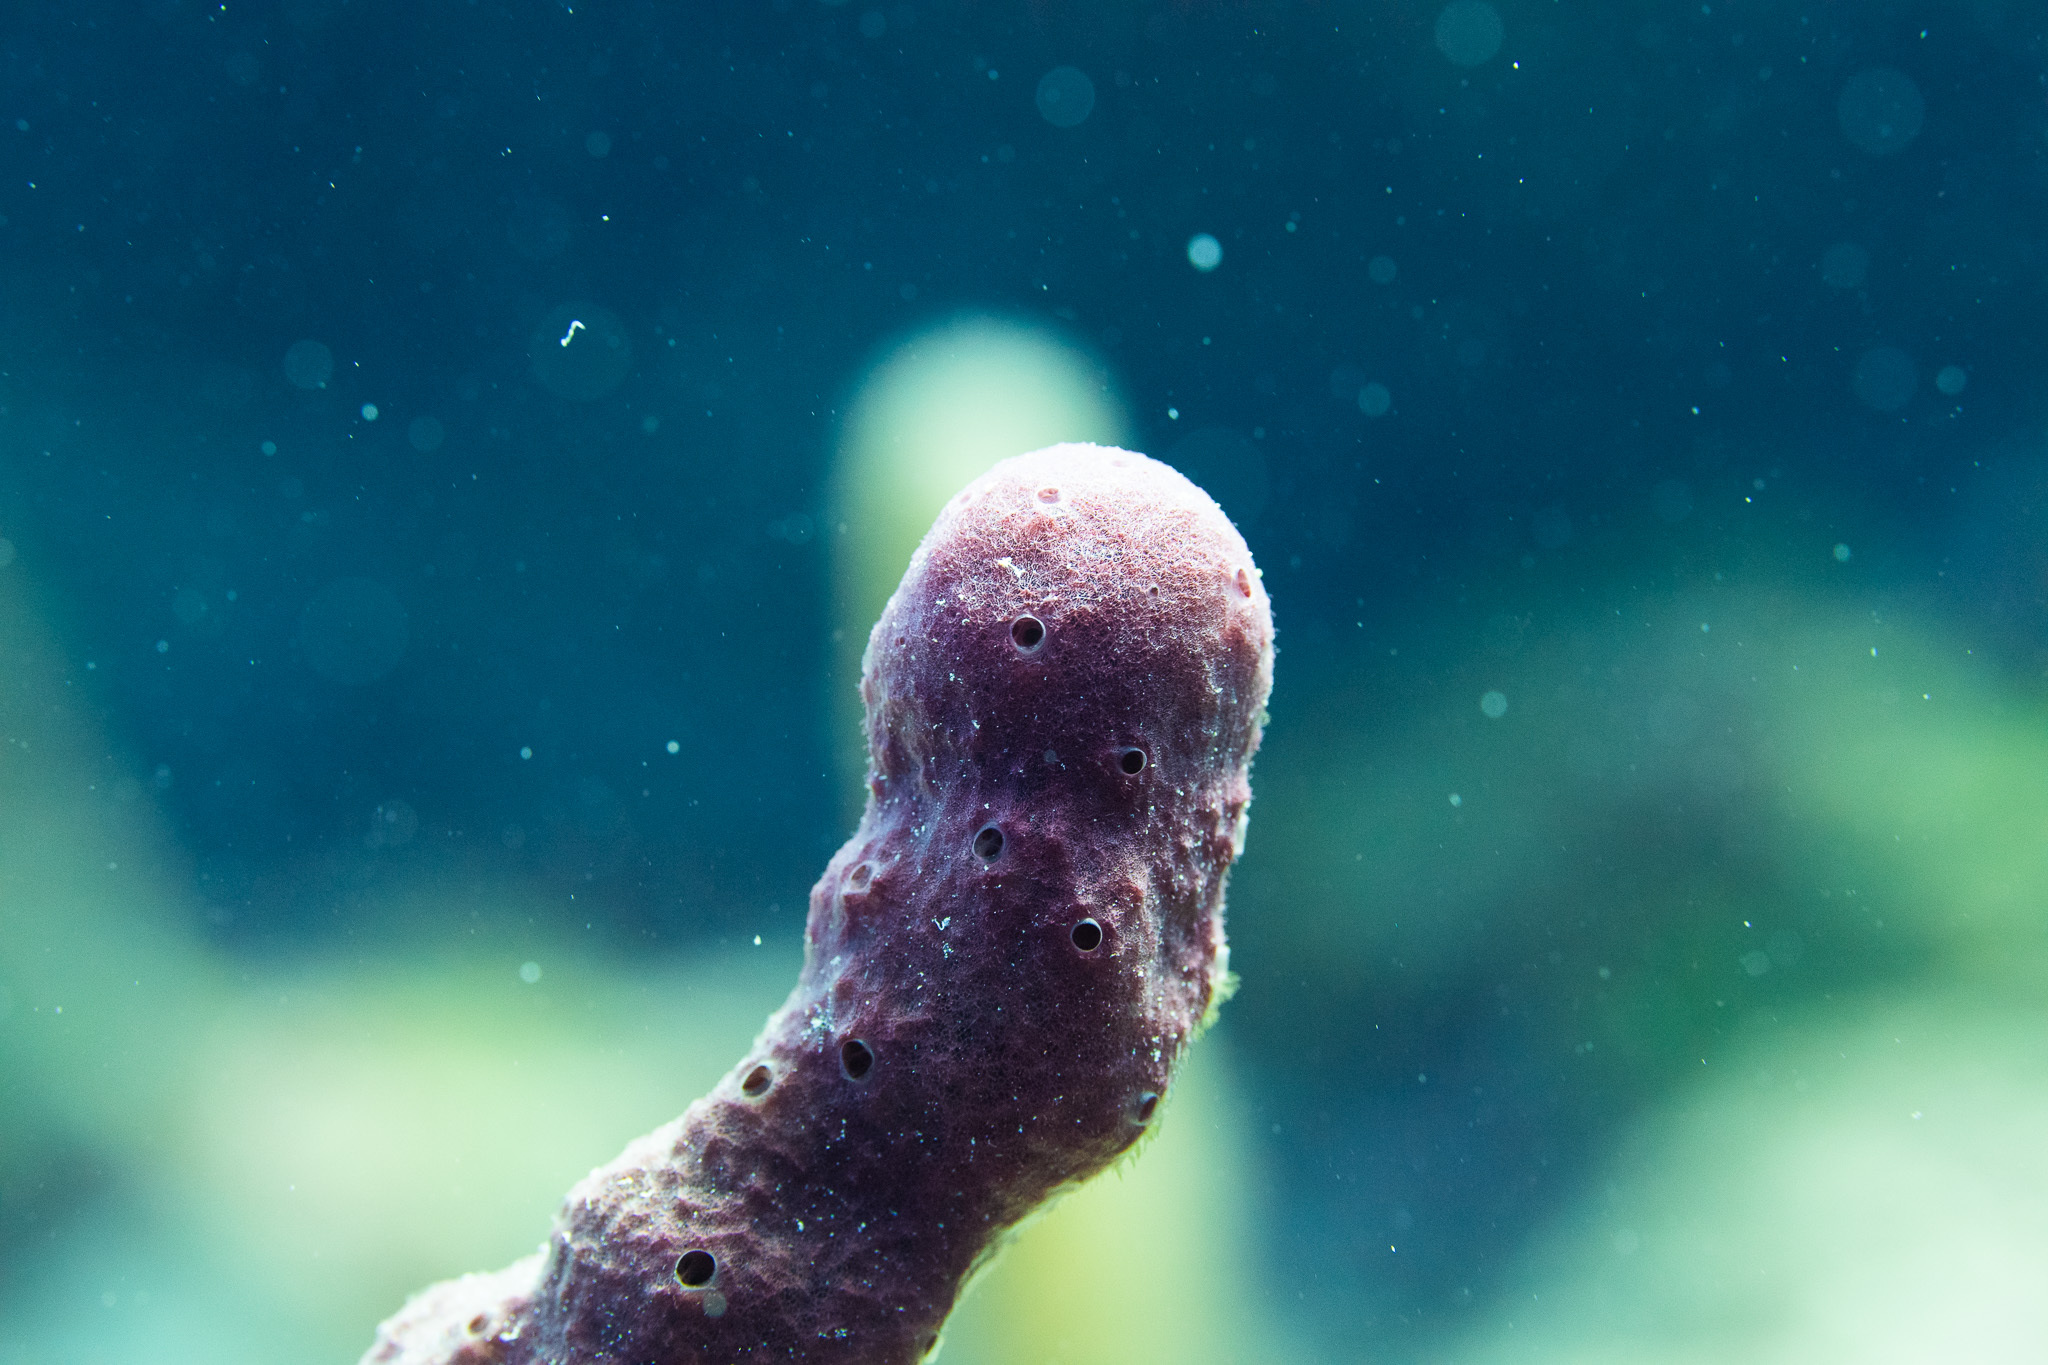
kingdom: Animalia
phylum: Porifera
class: Demospongiae
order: Haplosclerida
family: Niphatidae
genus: Amphimedon
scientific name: Amphimedon compressa
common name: Red sponge
